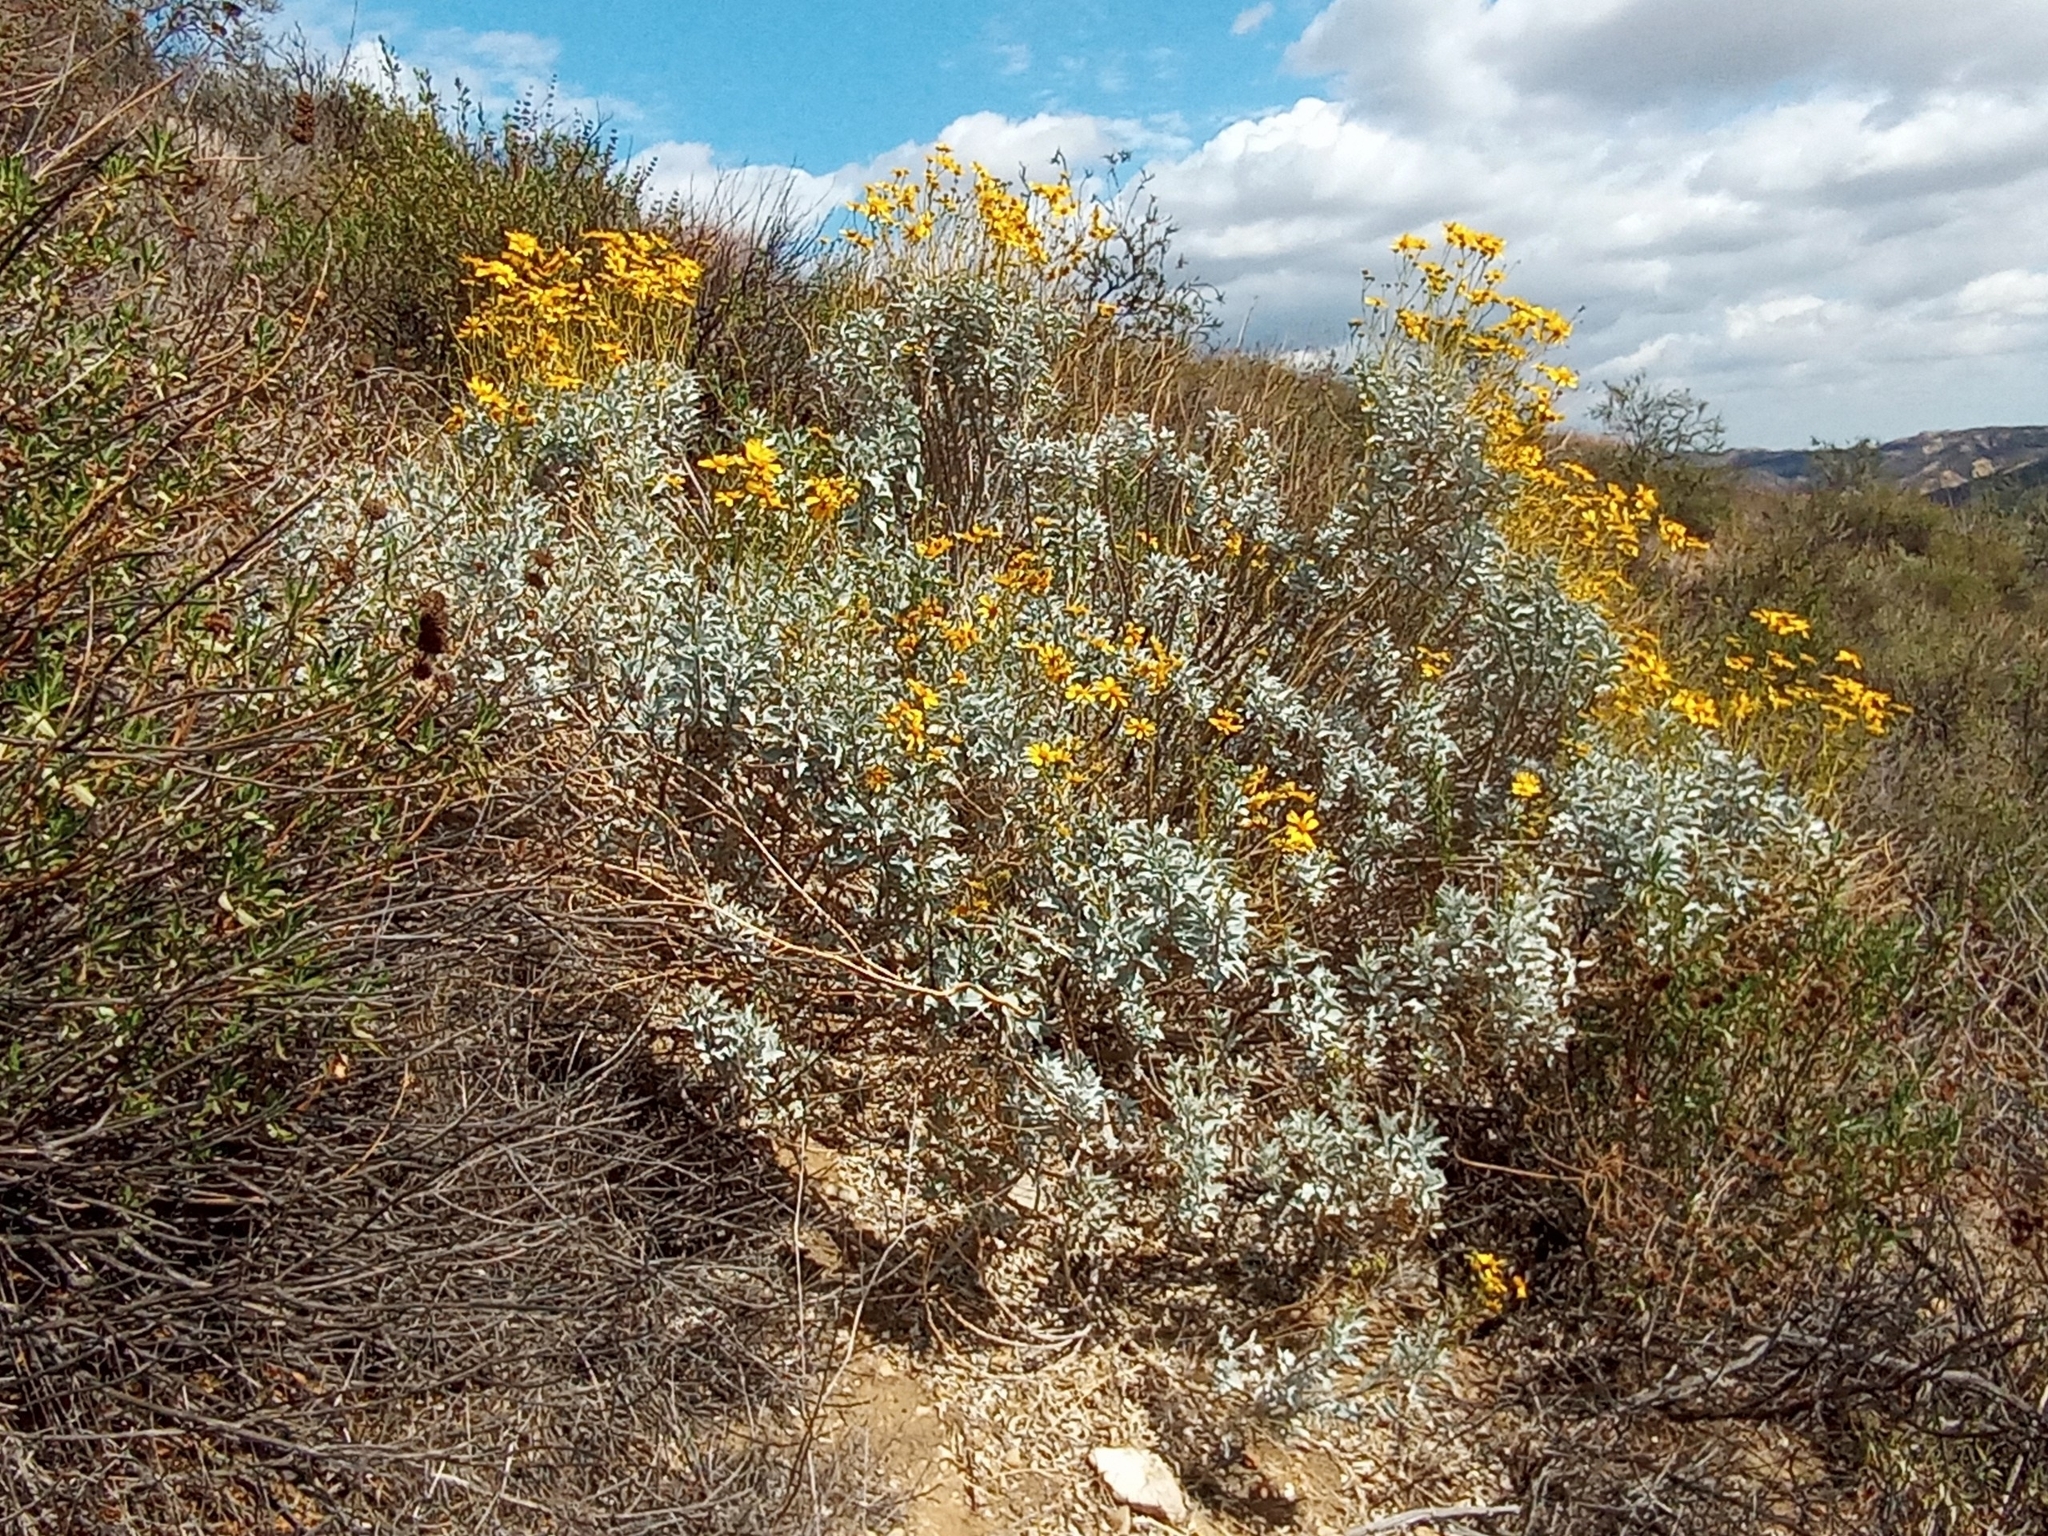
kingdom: Plantae
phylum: Tracheophyta
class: Magnoliopsida
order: Asterales
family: Asteraceae
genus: Encelia
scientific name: Encelia farinosa
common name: Brittlebush
